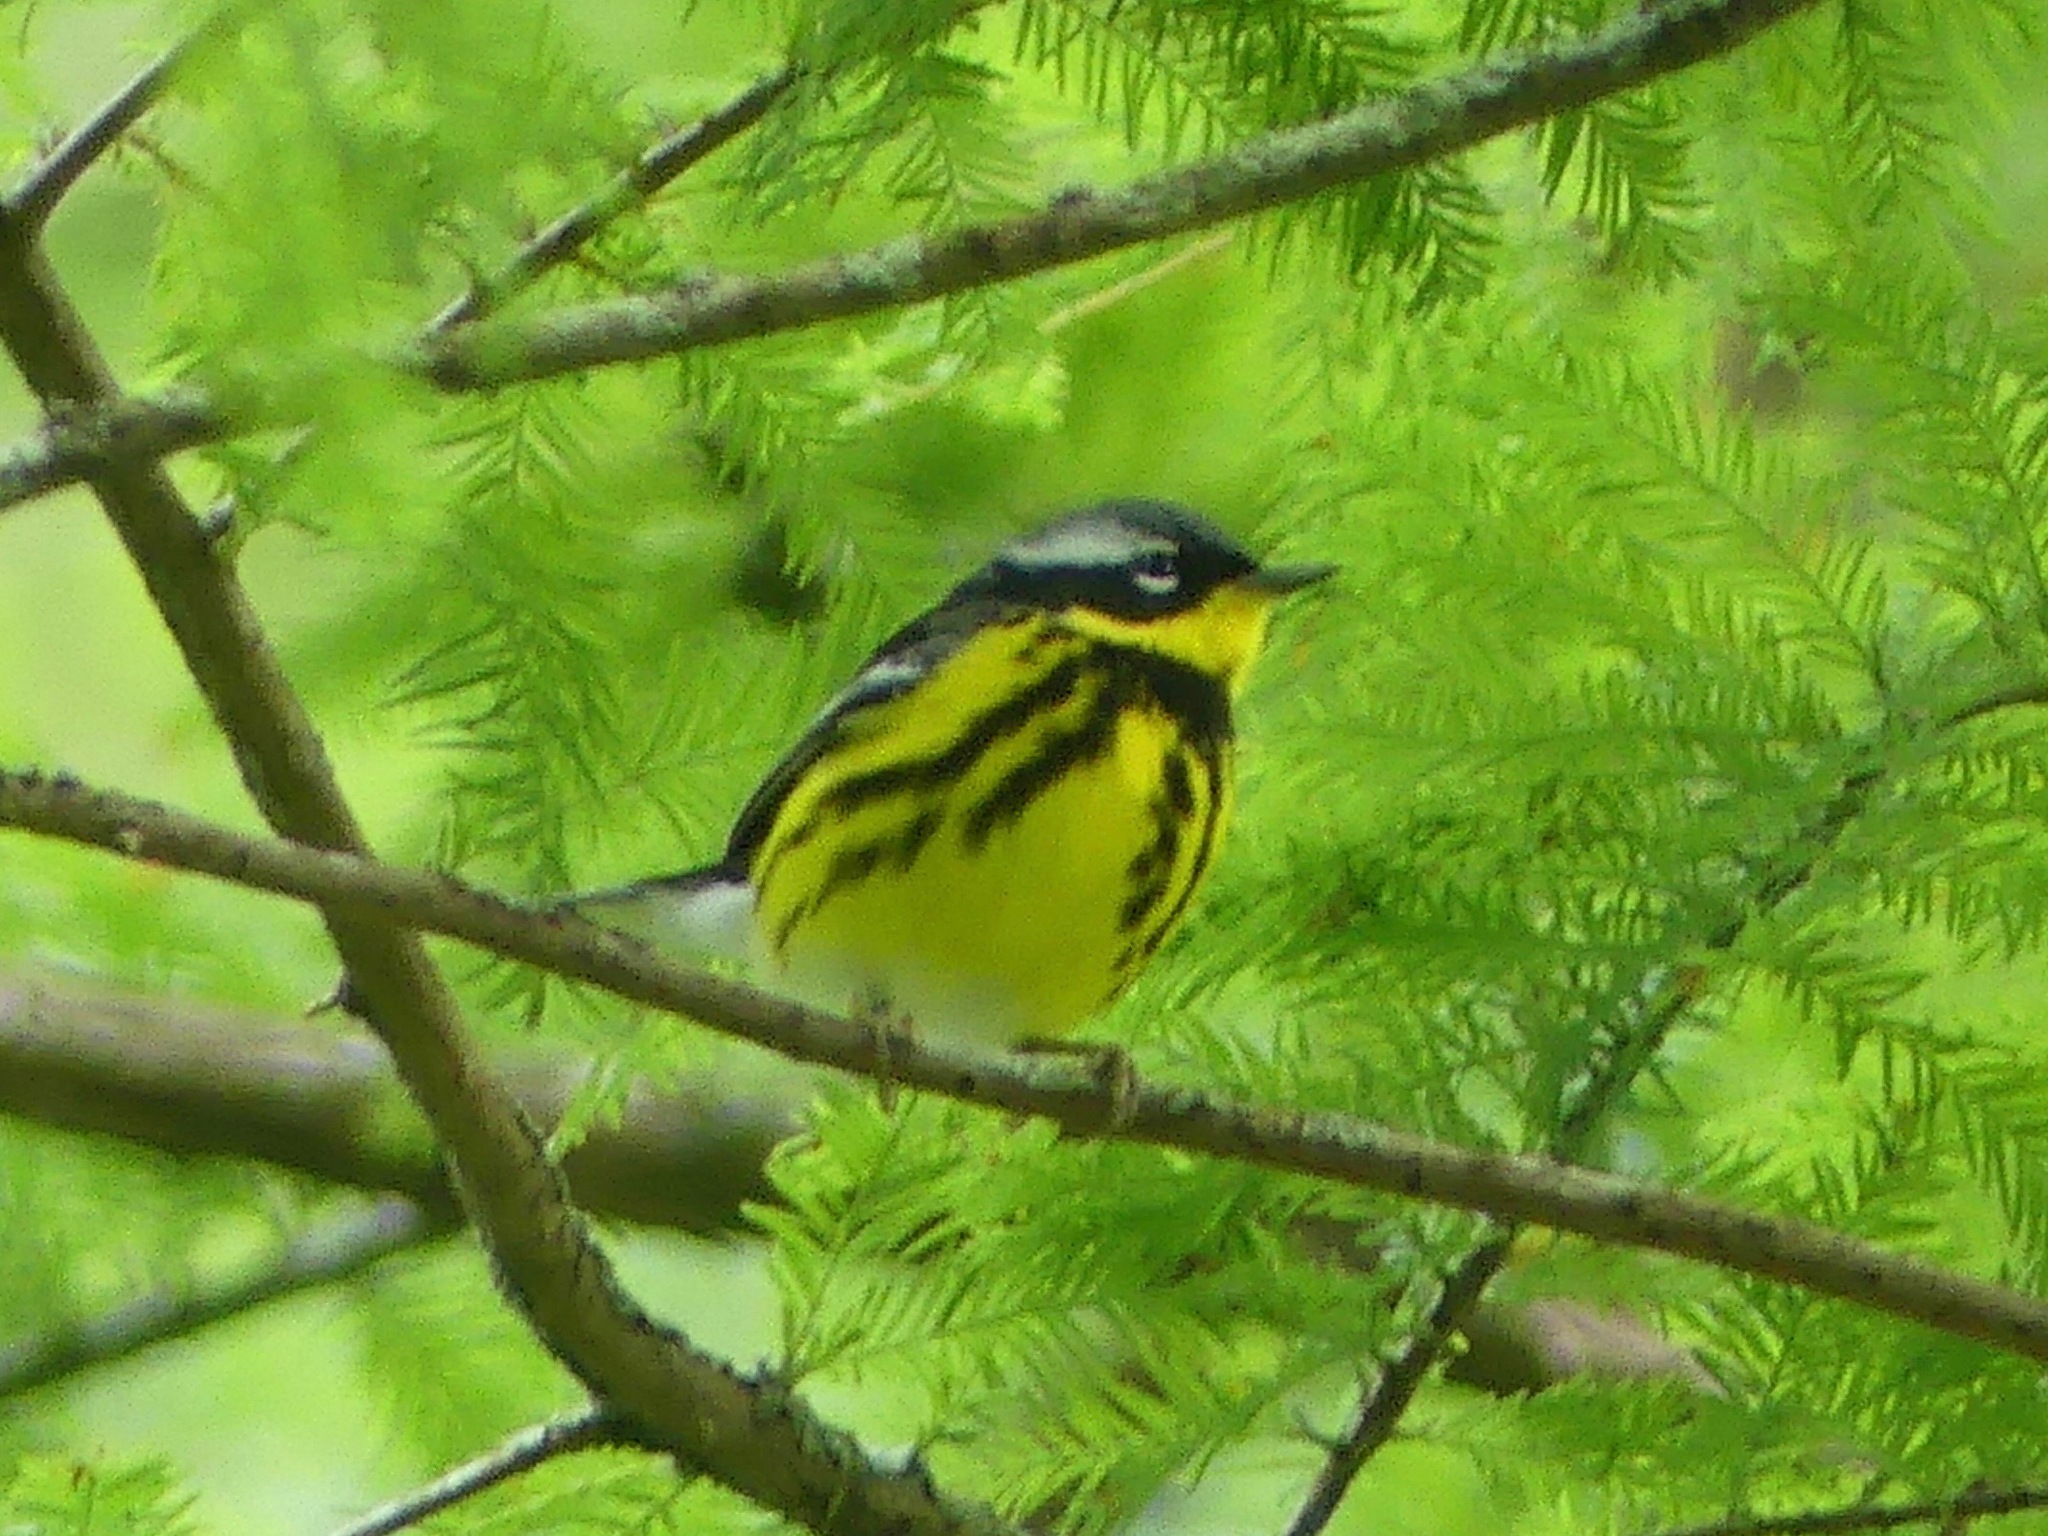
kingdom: Animalia
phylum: Chordata
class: Aves
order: Passeriformes
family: Parulidae
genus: Setophaga
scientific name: Setophaga magnolia
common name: Magnolia warbler
